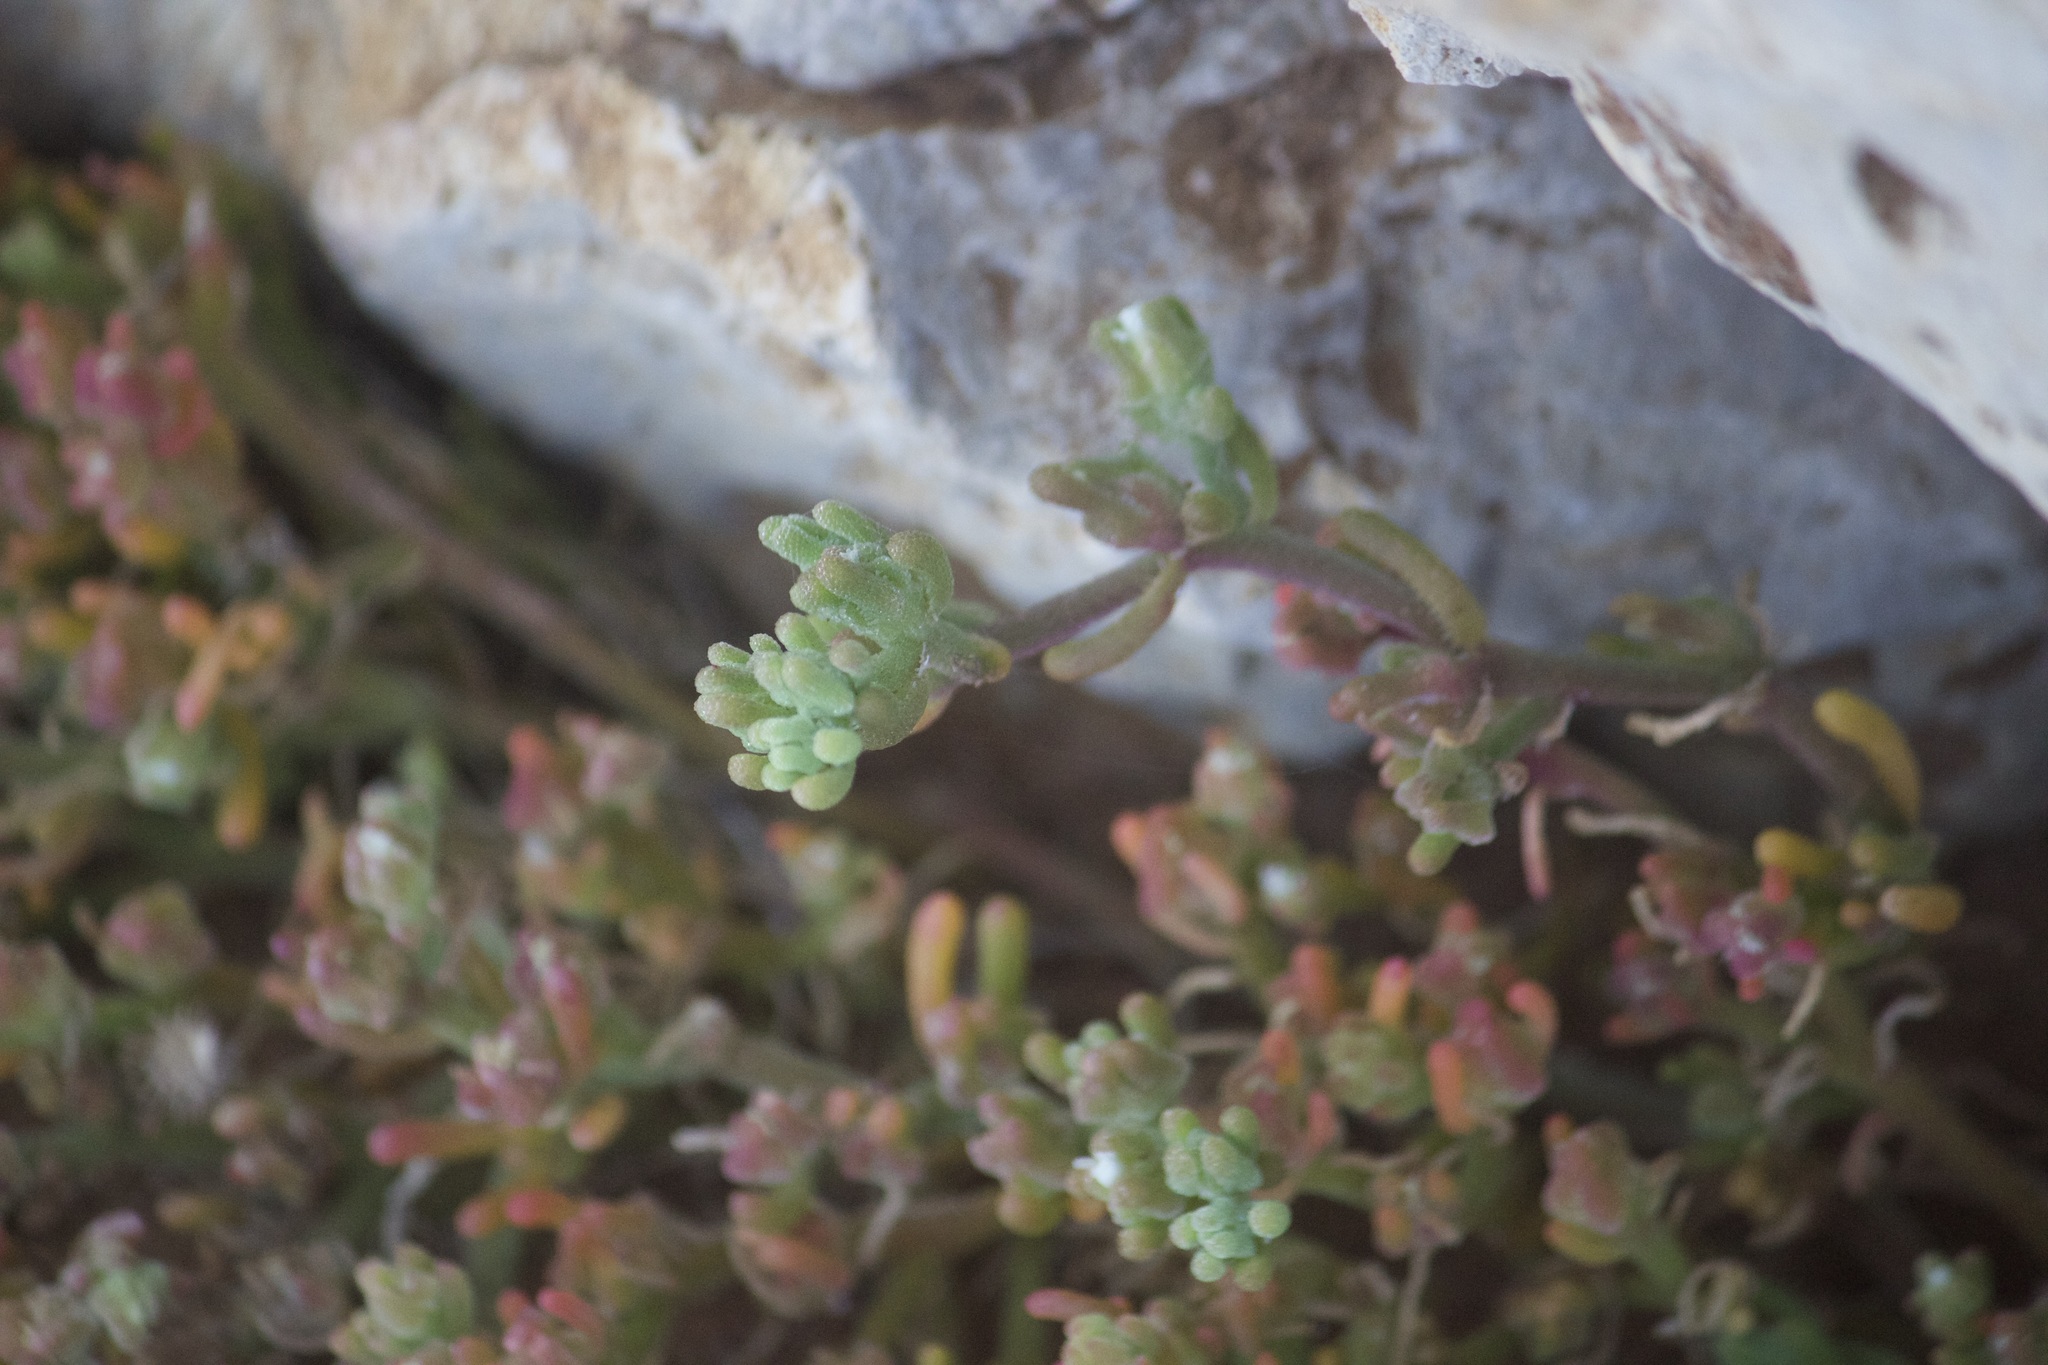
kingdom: Plantae
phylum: Tracheophyta
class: Magnoliopsida
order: Caryophyllales
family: Aizoaceae
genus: Mesembryanthemum
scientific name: Mesembryanthemum nodiflorum
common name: Slenderleaf iceplant
